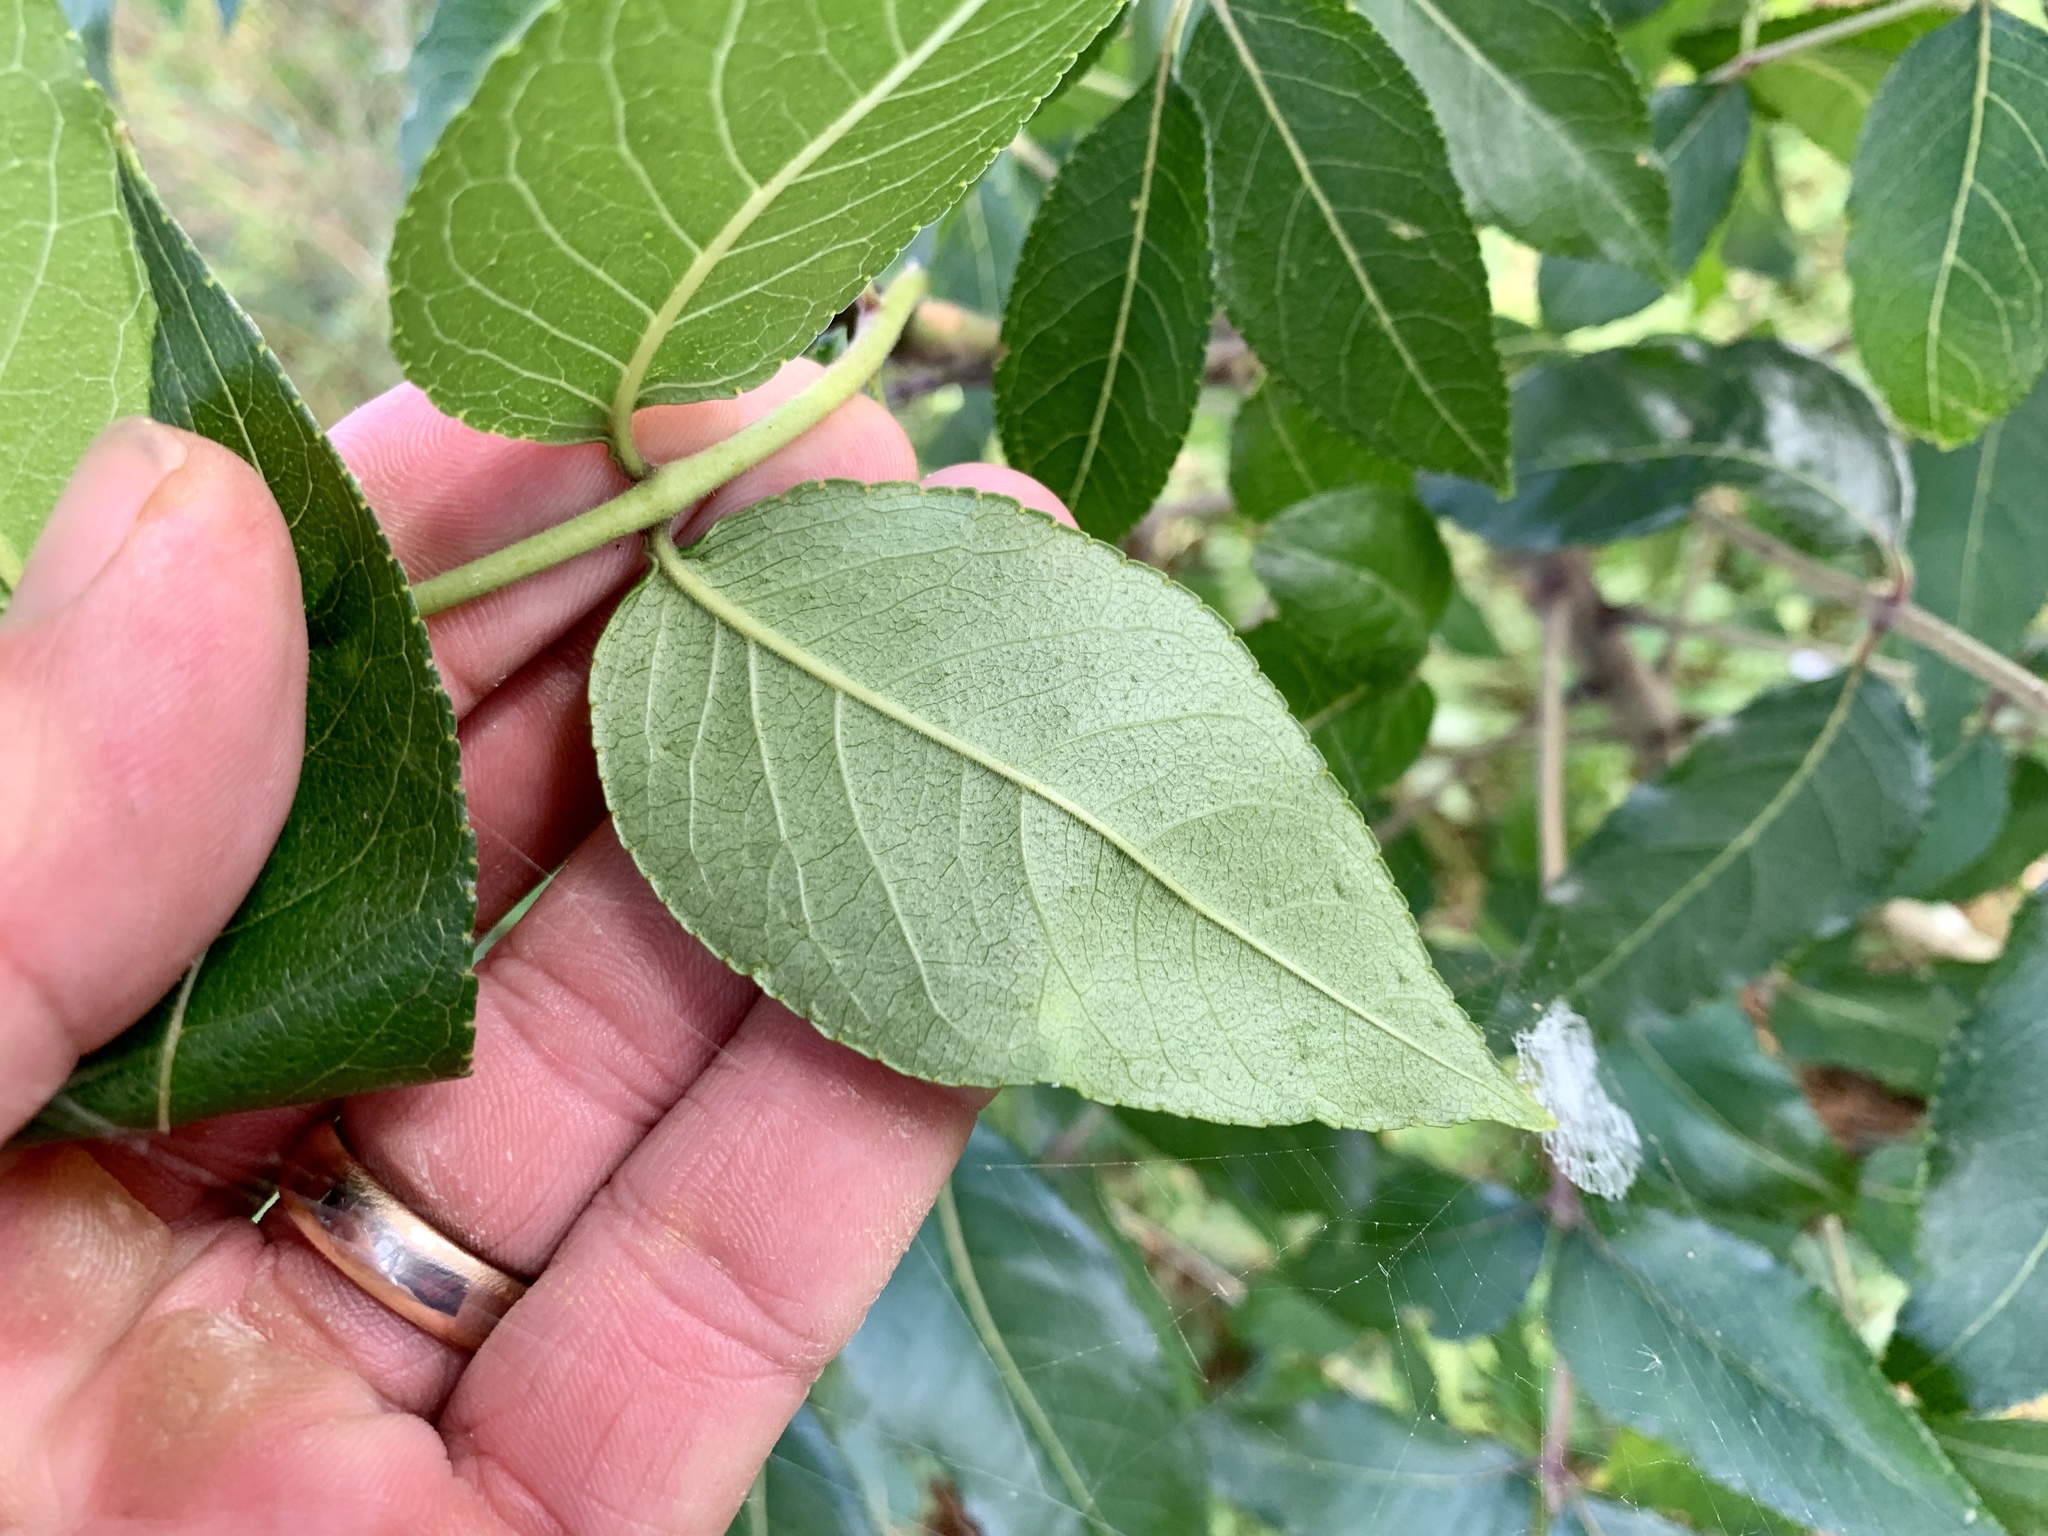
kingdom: Plantae
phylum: Tracheophyta
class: Magnoliopsida
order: Sapindales
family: Rutaceae
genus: Zanthoxylum
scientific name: Zanthoxylum clava-herculis
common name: Hercules'-club
